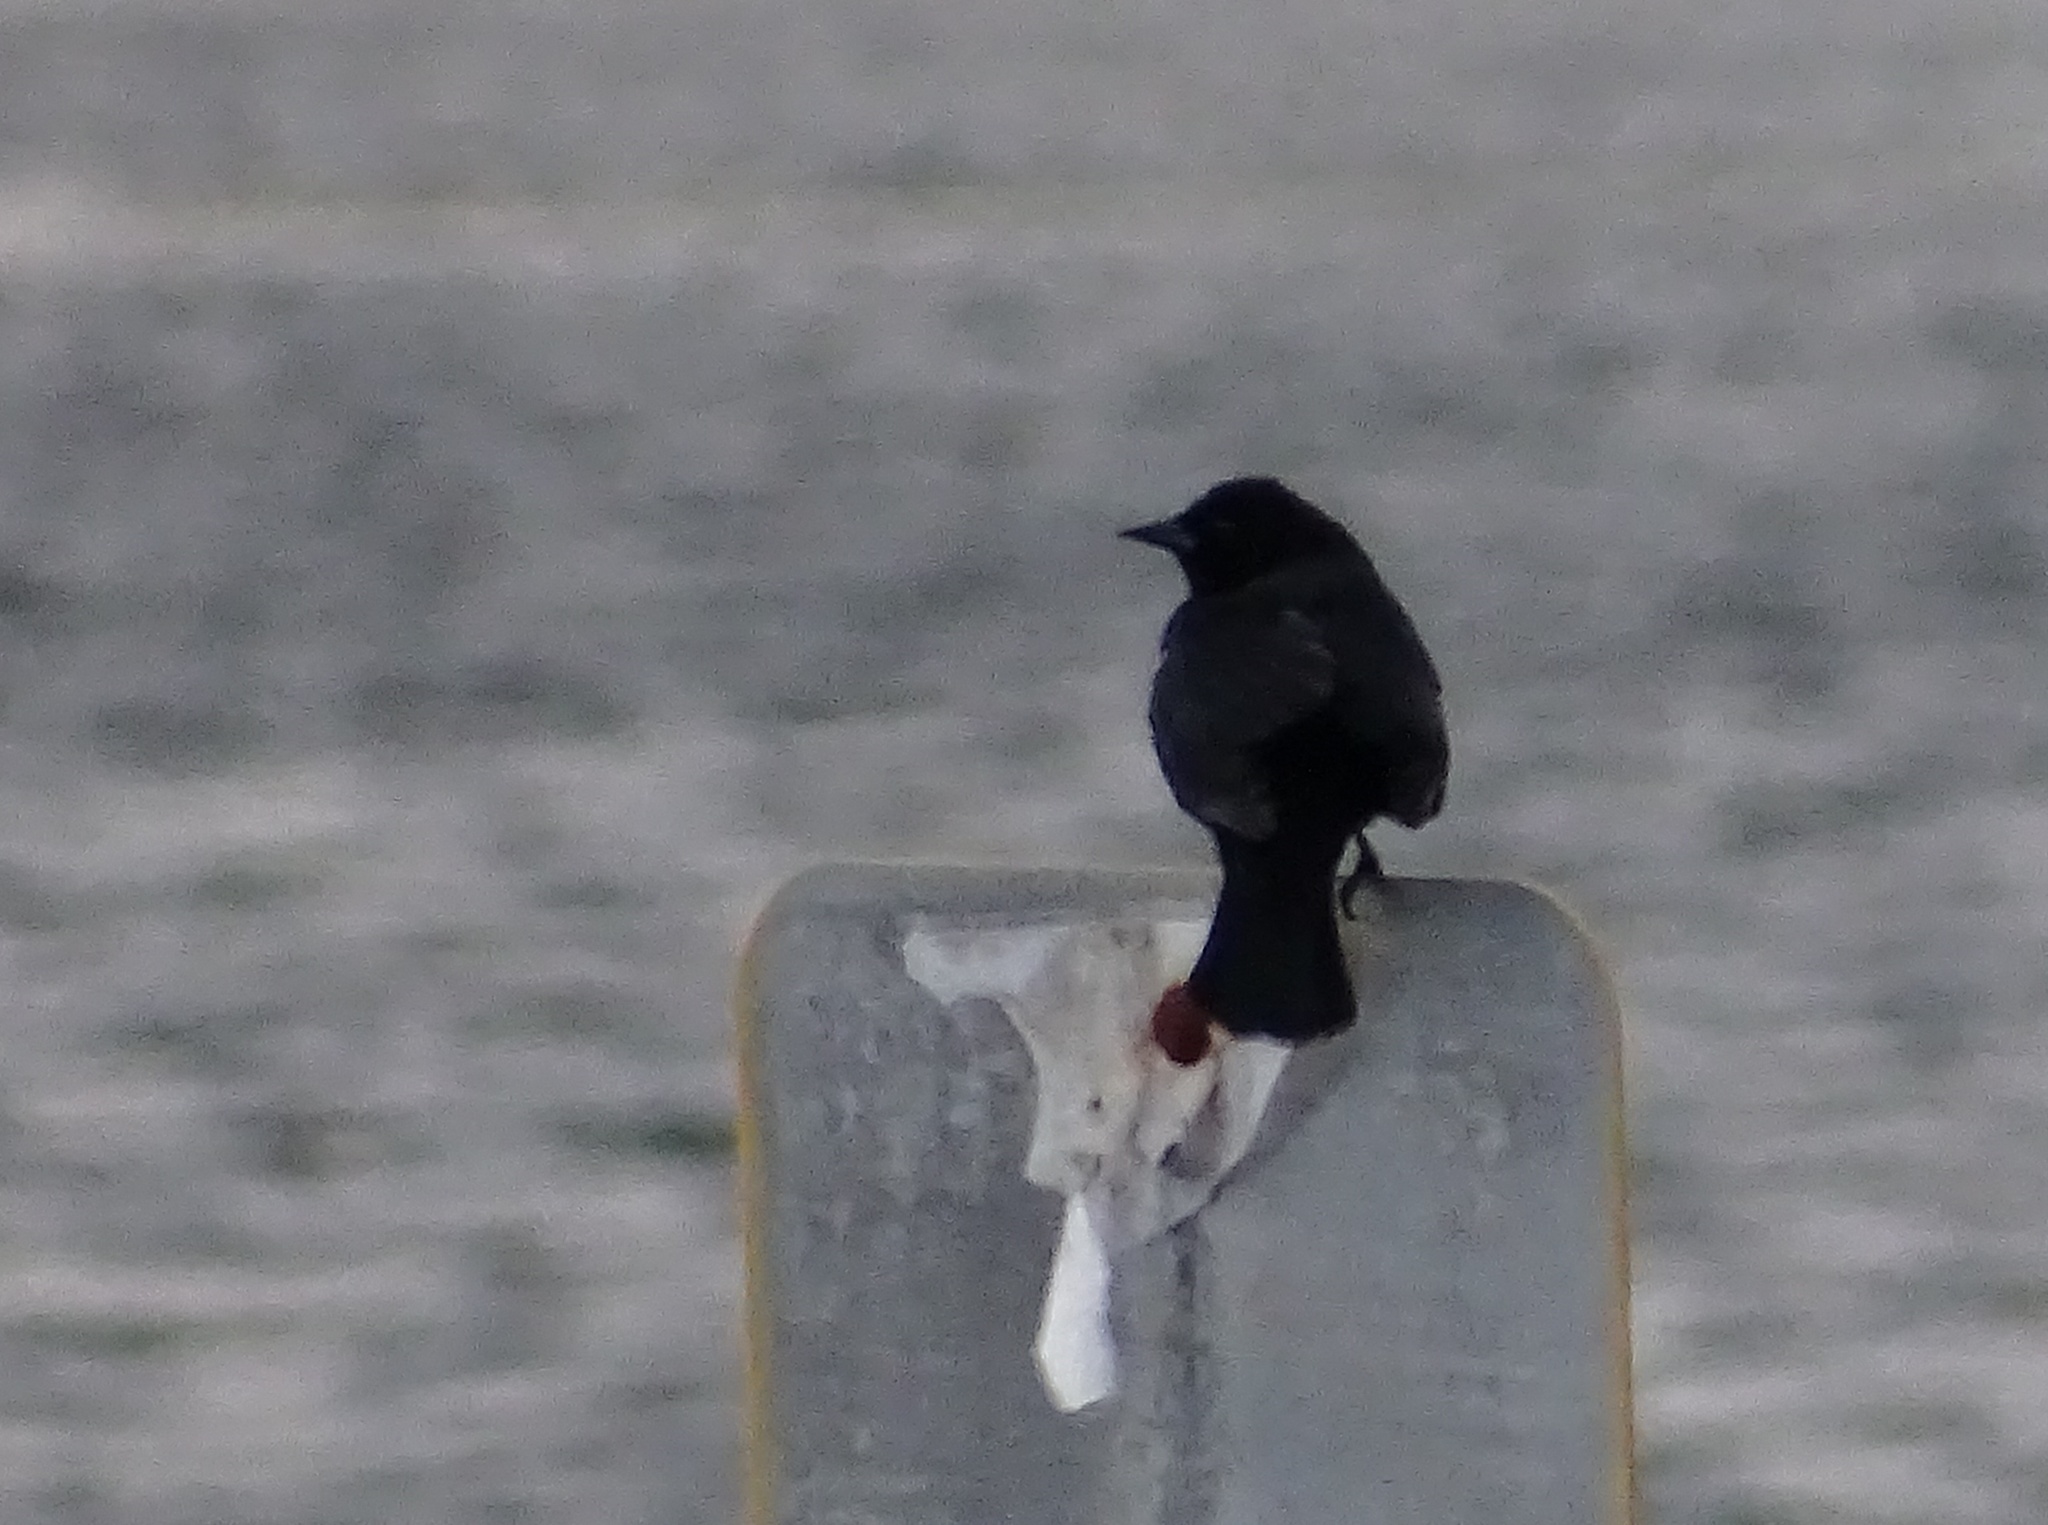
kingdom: Animalia
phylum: Chordata
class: Aves
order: Passeriformes
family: Icteridae
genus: Agelaius
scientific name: Agelaius phoeniceus
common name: Red-winged blackbird
